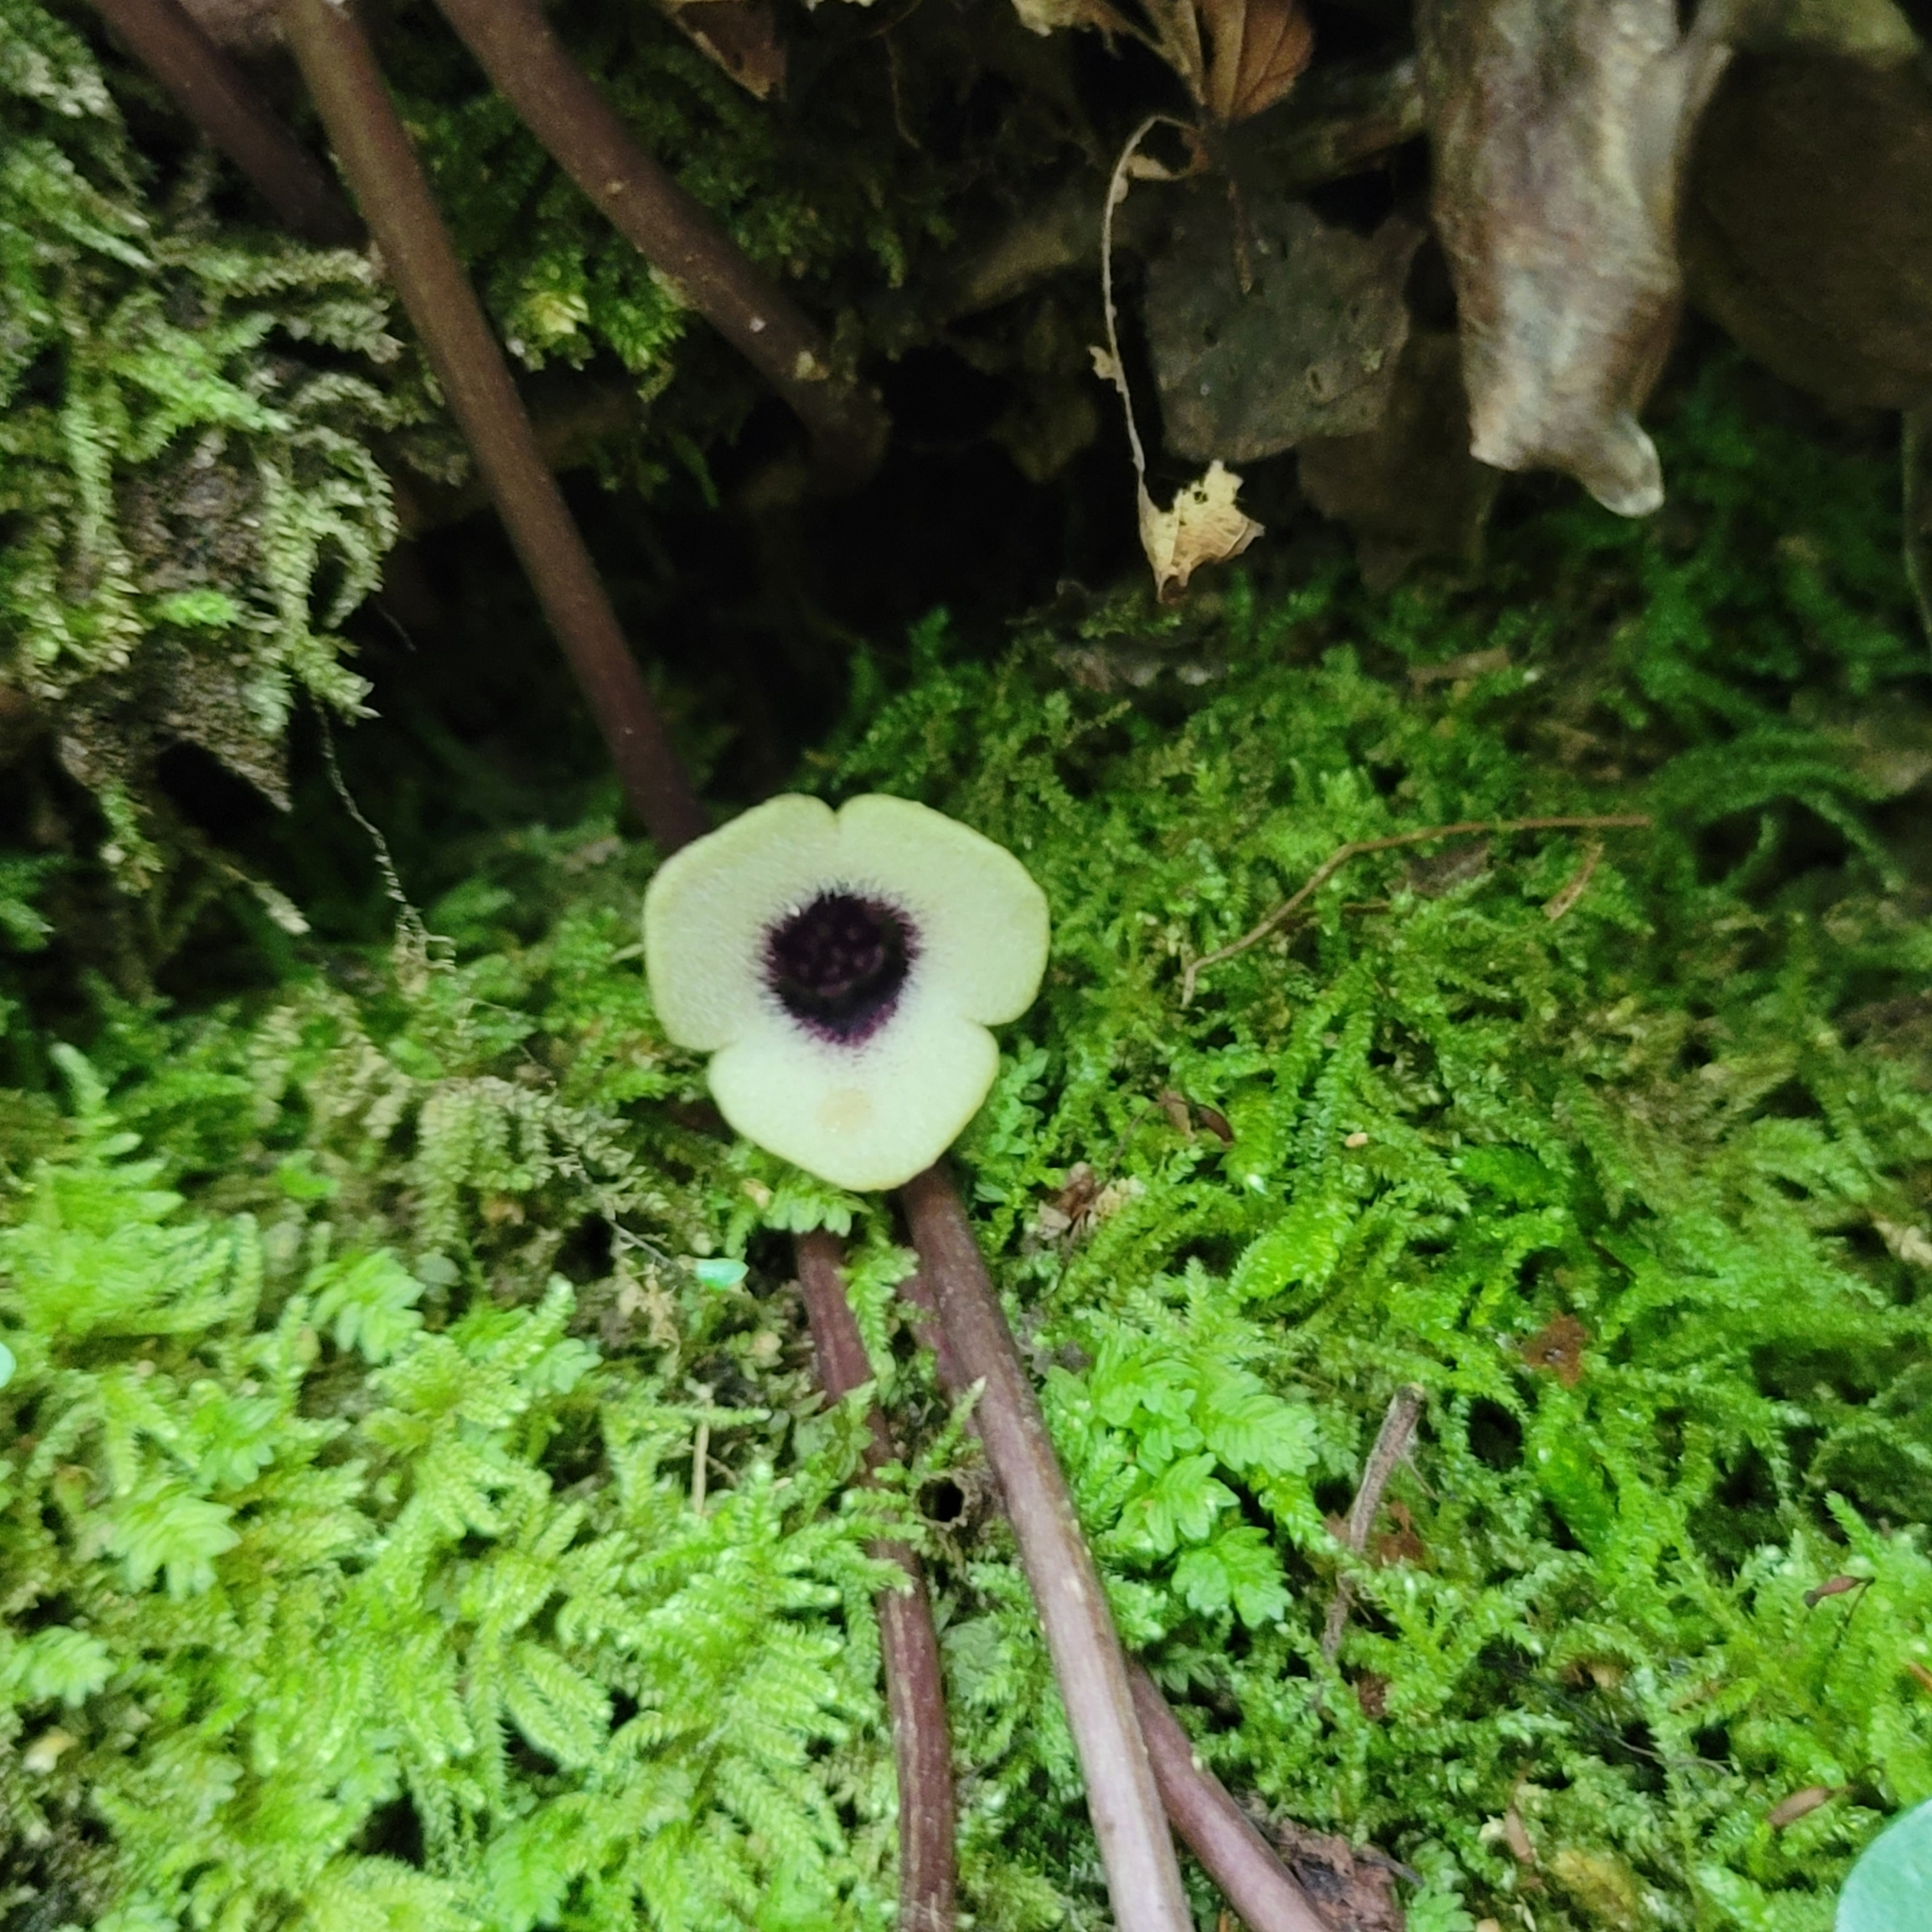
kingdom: Plantae
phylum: Tracheophyta
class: Magnoliopsida
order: Piperales
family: Aristolochiaceae
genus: Hexastylis
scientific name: Hexastylis rosei
